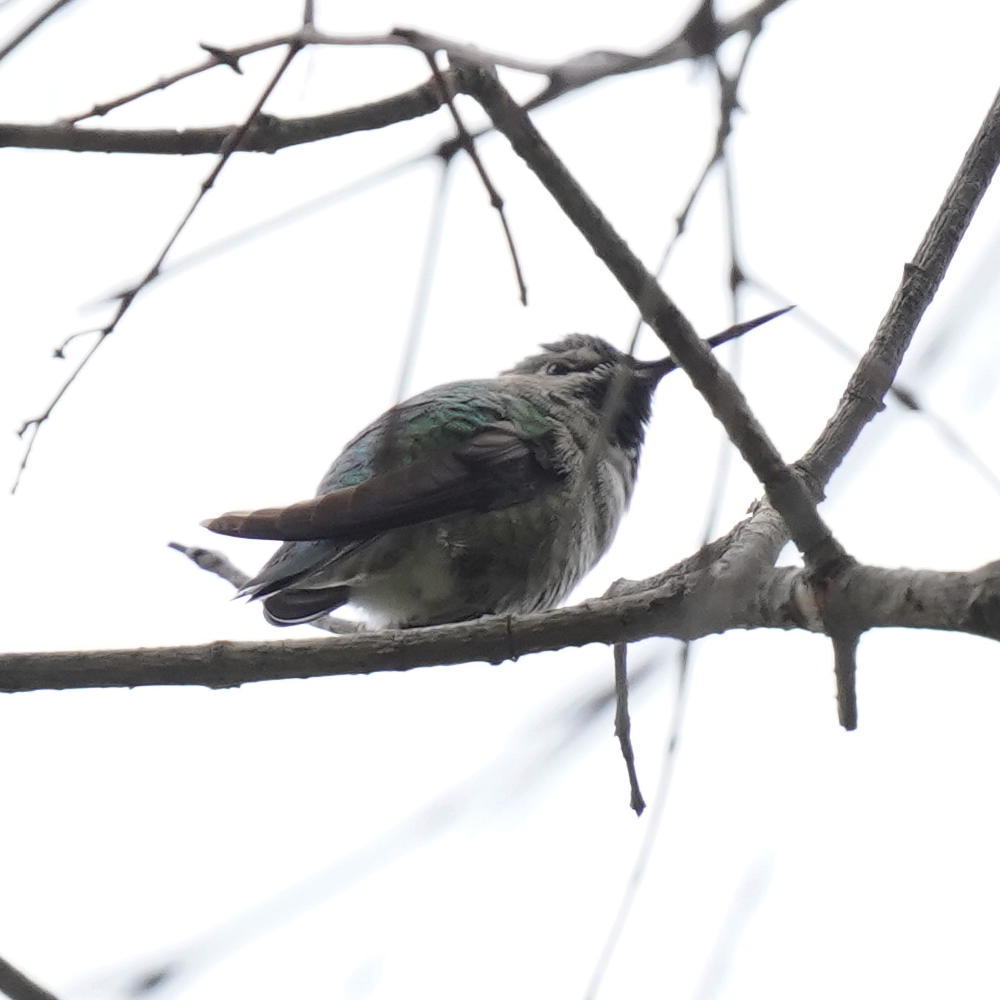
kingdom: Animalia
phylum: Chordata
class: Aves
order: Apodiformes
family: Trochilidae
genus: Calypte
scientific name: Calypte anna
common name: Anna's hummingbird
